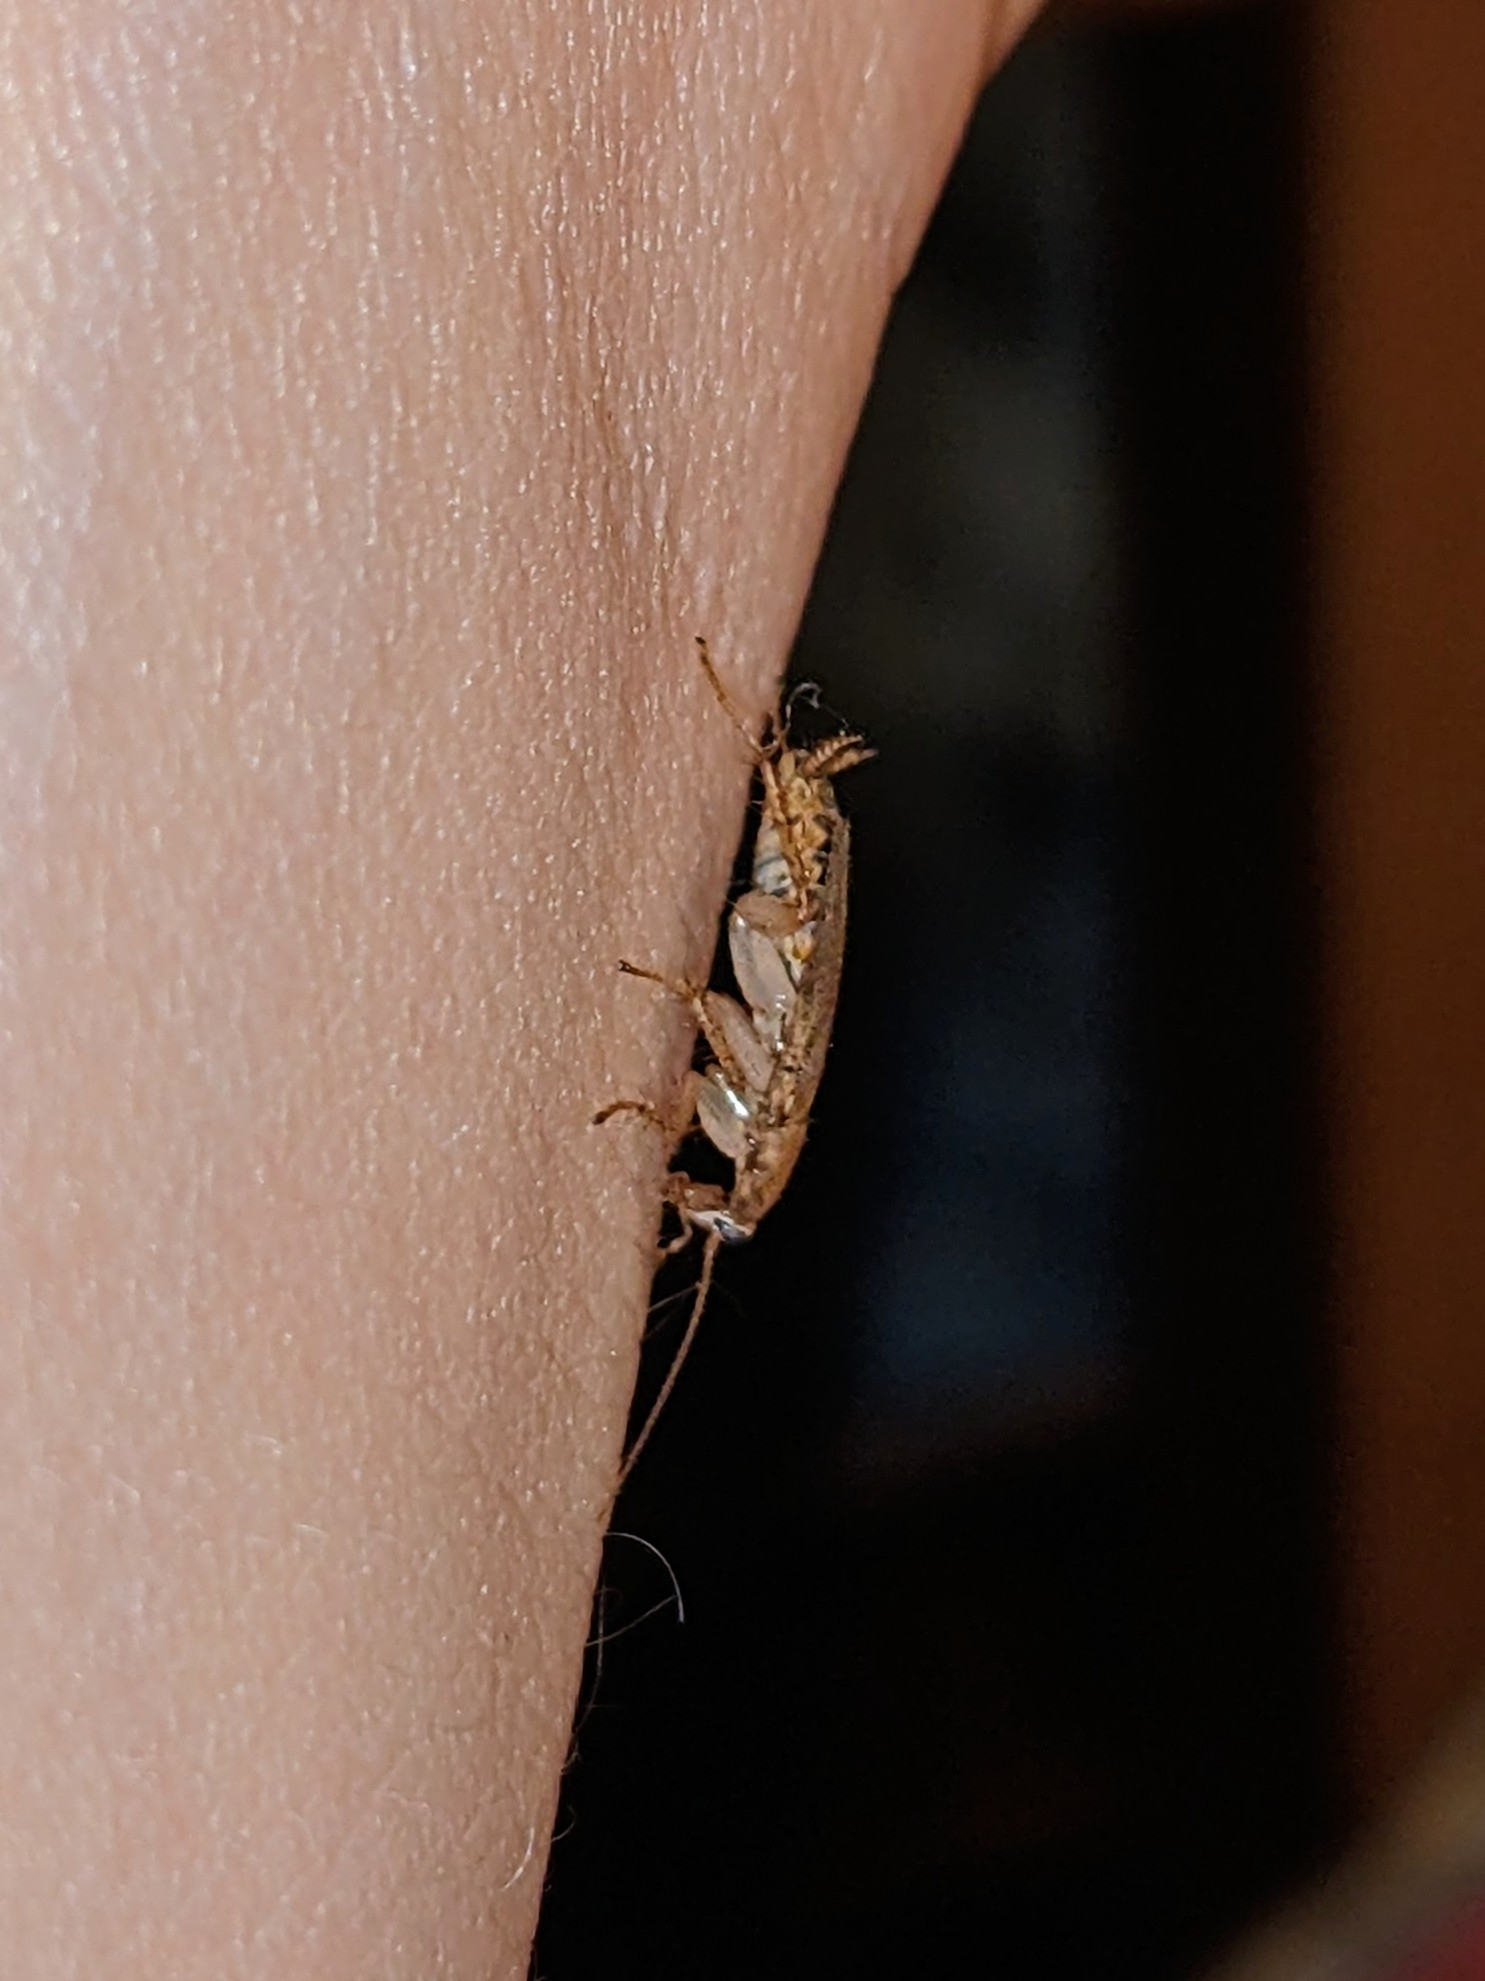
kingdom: Animalia
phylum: Arthropoda
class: Insecta
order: Blattodea
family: Ectobiidae
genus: Planuncus
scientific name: Planuncus tingitanus
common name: Variable cockroach
